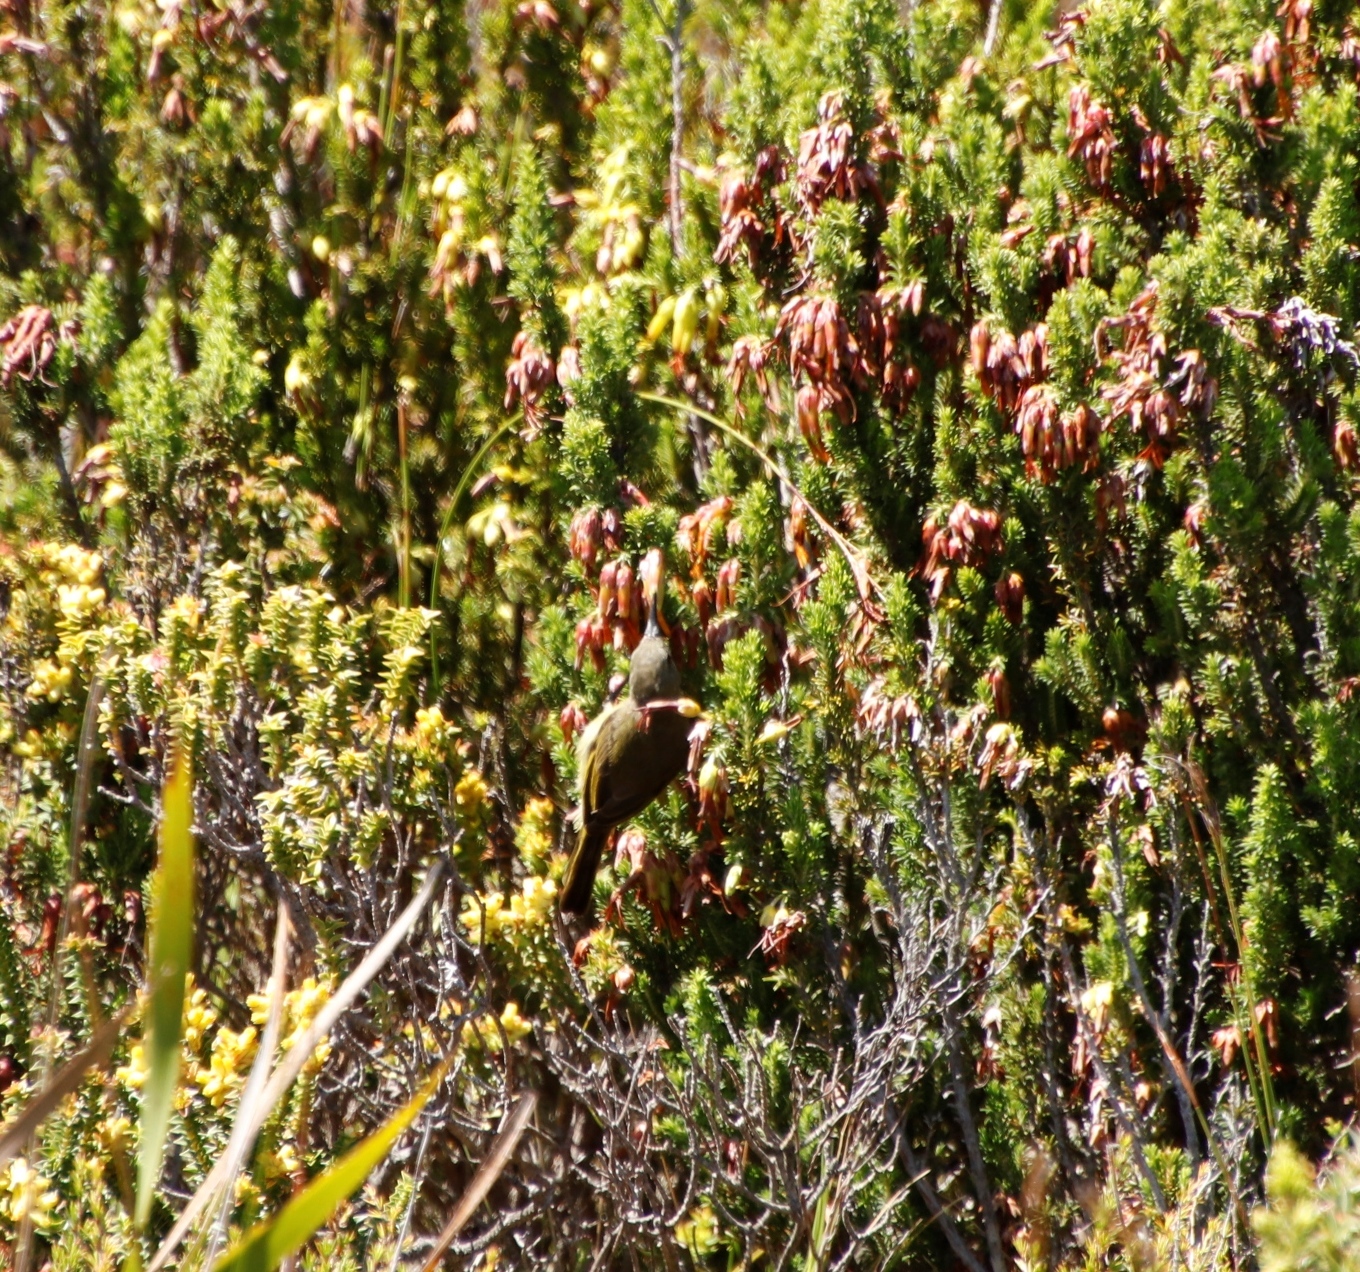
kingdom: Plantae
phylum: Tracheophyta
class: Magnoliopsida
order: Ericales
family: Ericaceae
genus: Erica
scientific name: Erica coccinea
